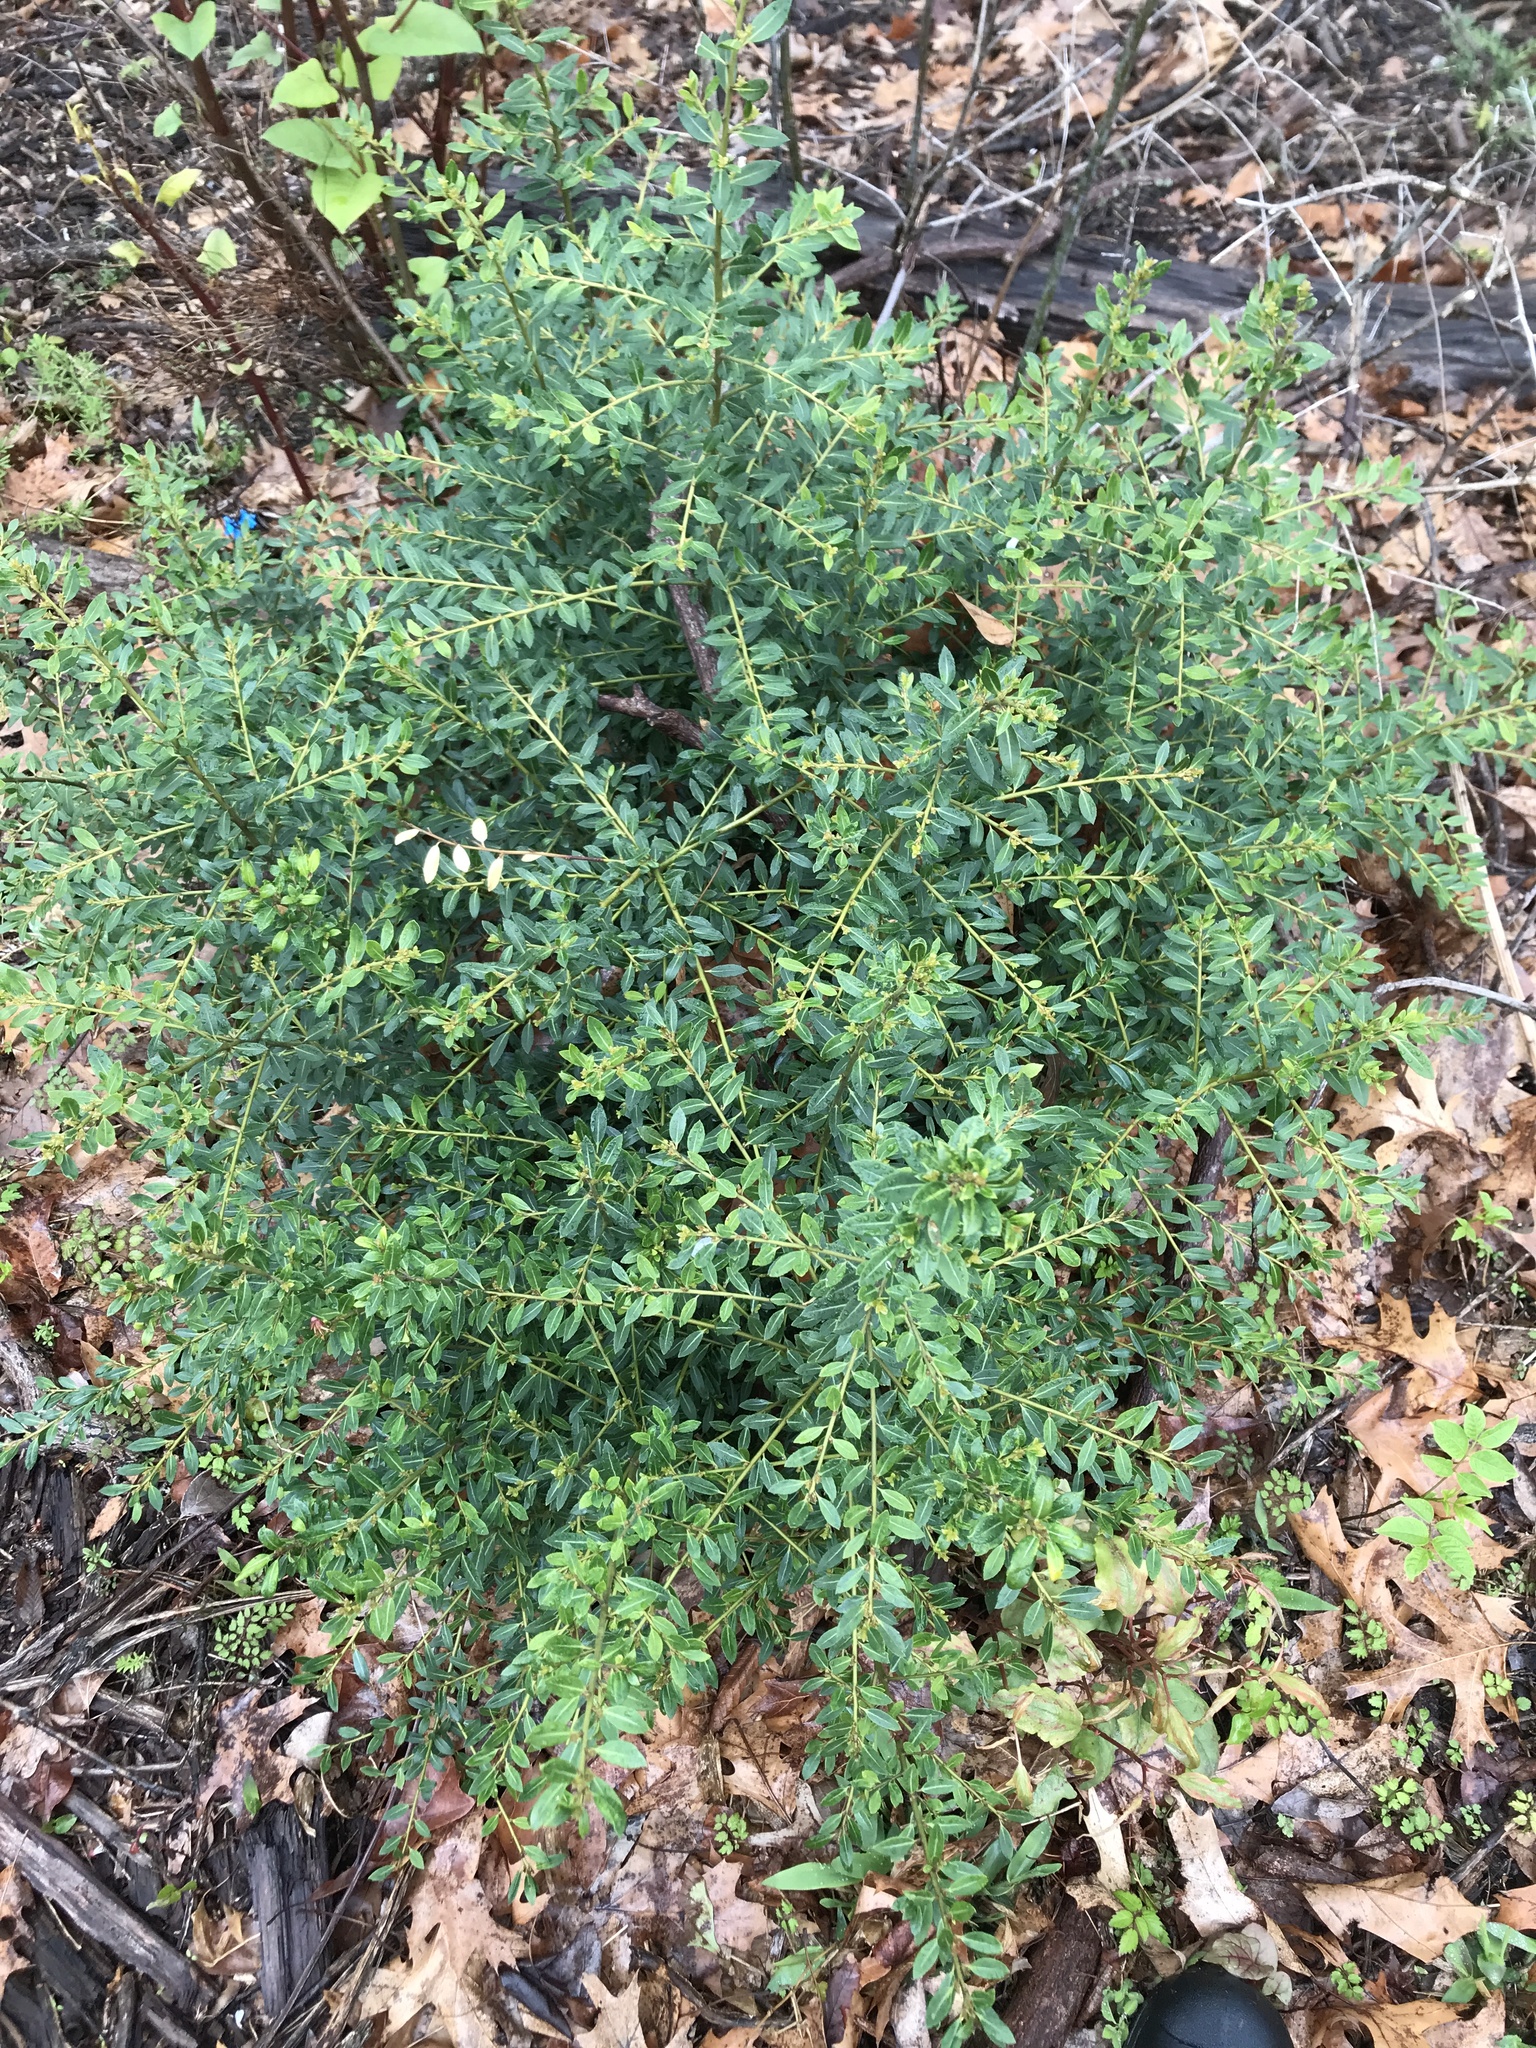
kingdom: Plantae
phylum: Tracheophyta
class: Magnoliopsida
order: Aquifoliales
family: Aquifoliaceae
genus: Ilex
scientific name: Ilex crenata
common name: Japanese holly
